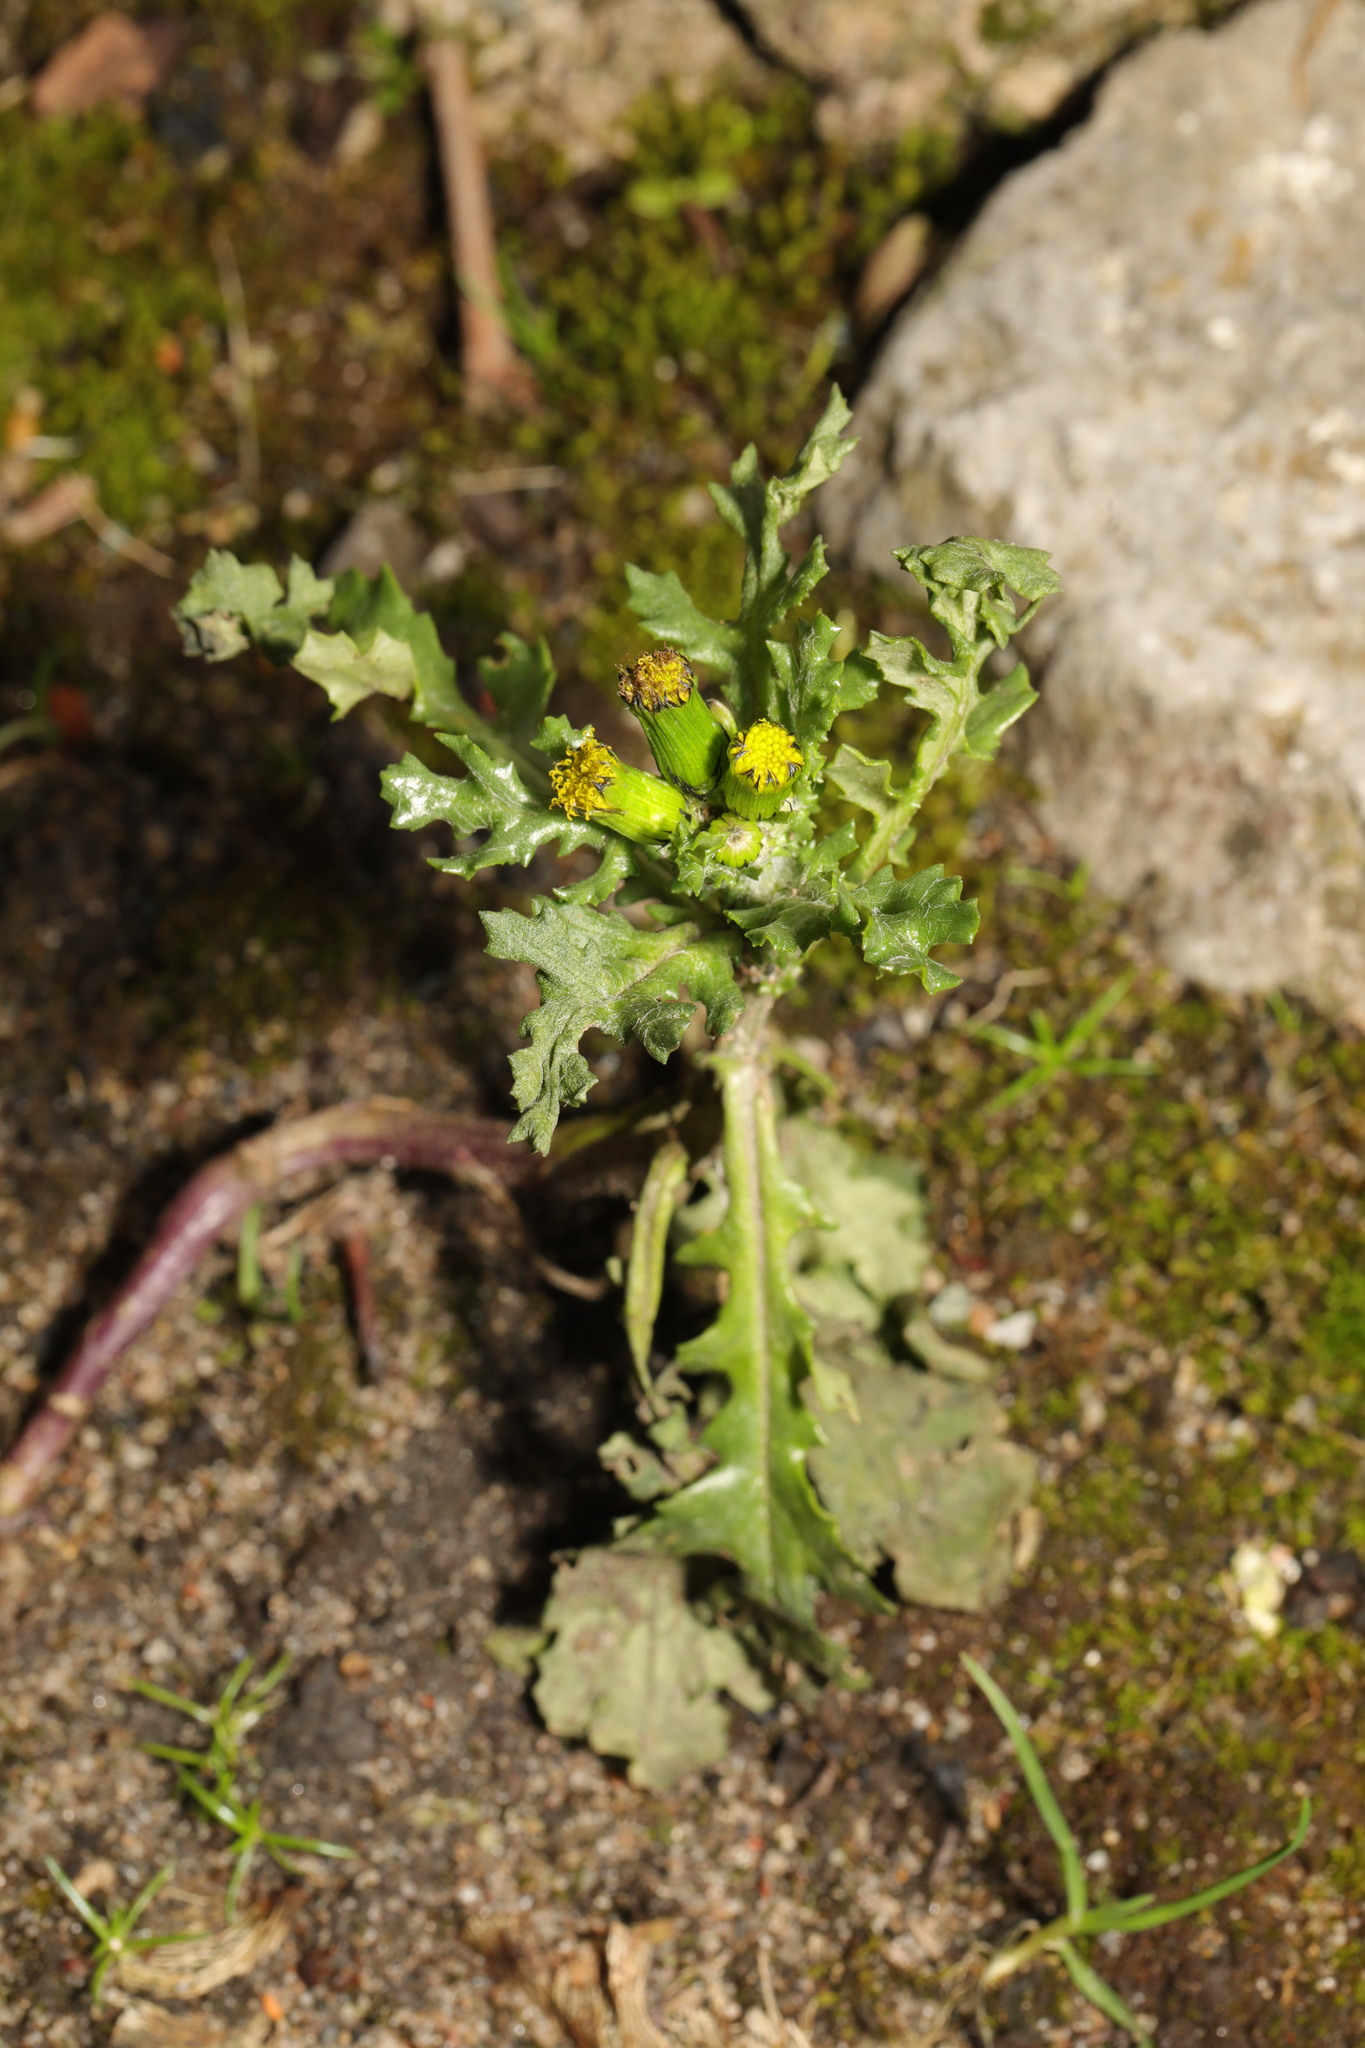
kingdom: Plantae
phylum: Tracheophyta
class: Magnoliopsida
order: Asterales
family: Asteraceae
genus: Senecio
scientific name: Senecio vulgaris
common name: Old-man-in-the-spring
